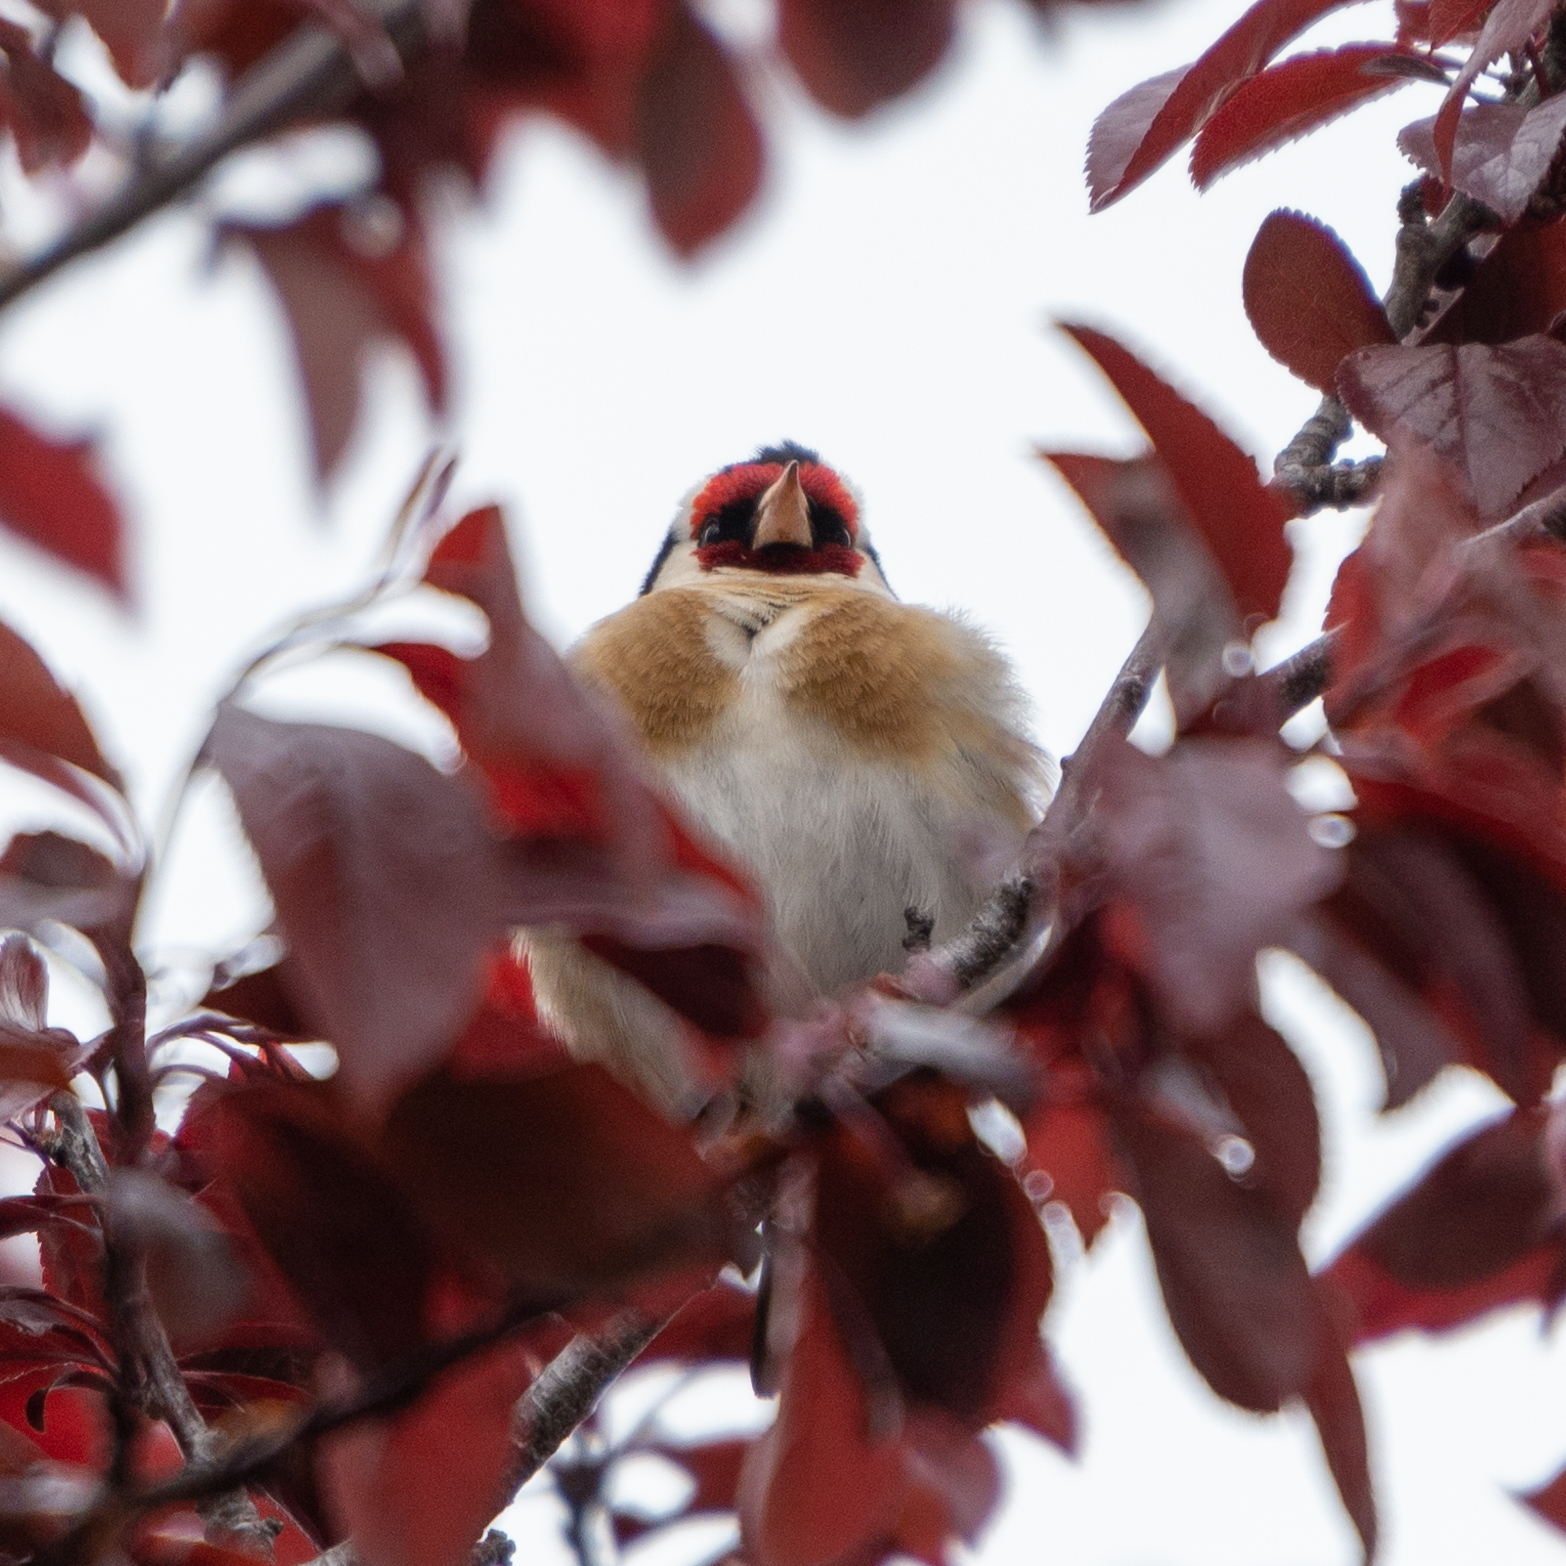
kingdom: Animalia
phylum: Chordata
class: Aves
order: Passeriformes
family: Fringillidae
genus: Carduelis
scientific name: Carduelis carduelis
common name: European goldfinch
